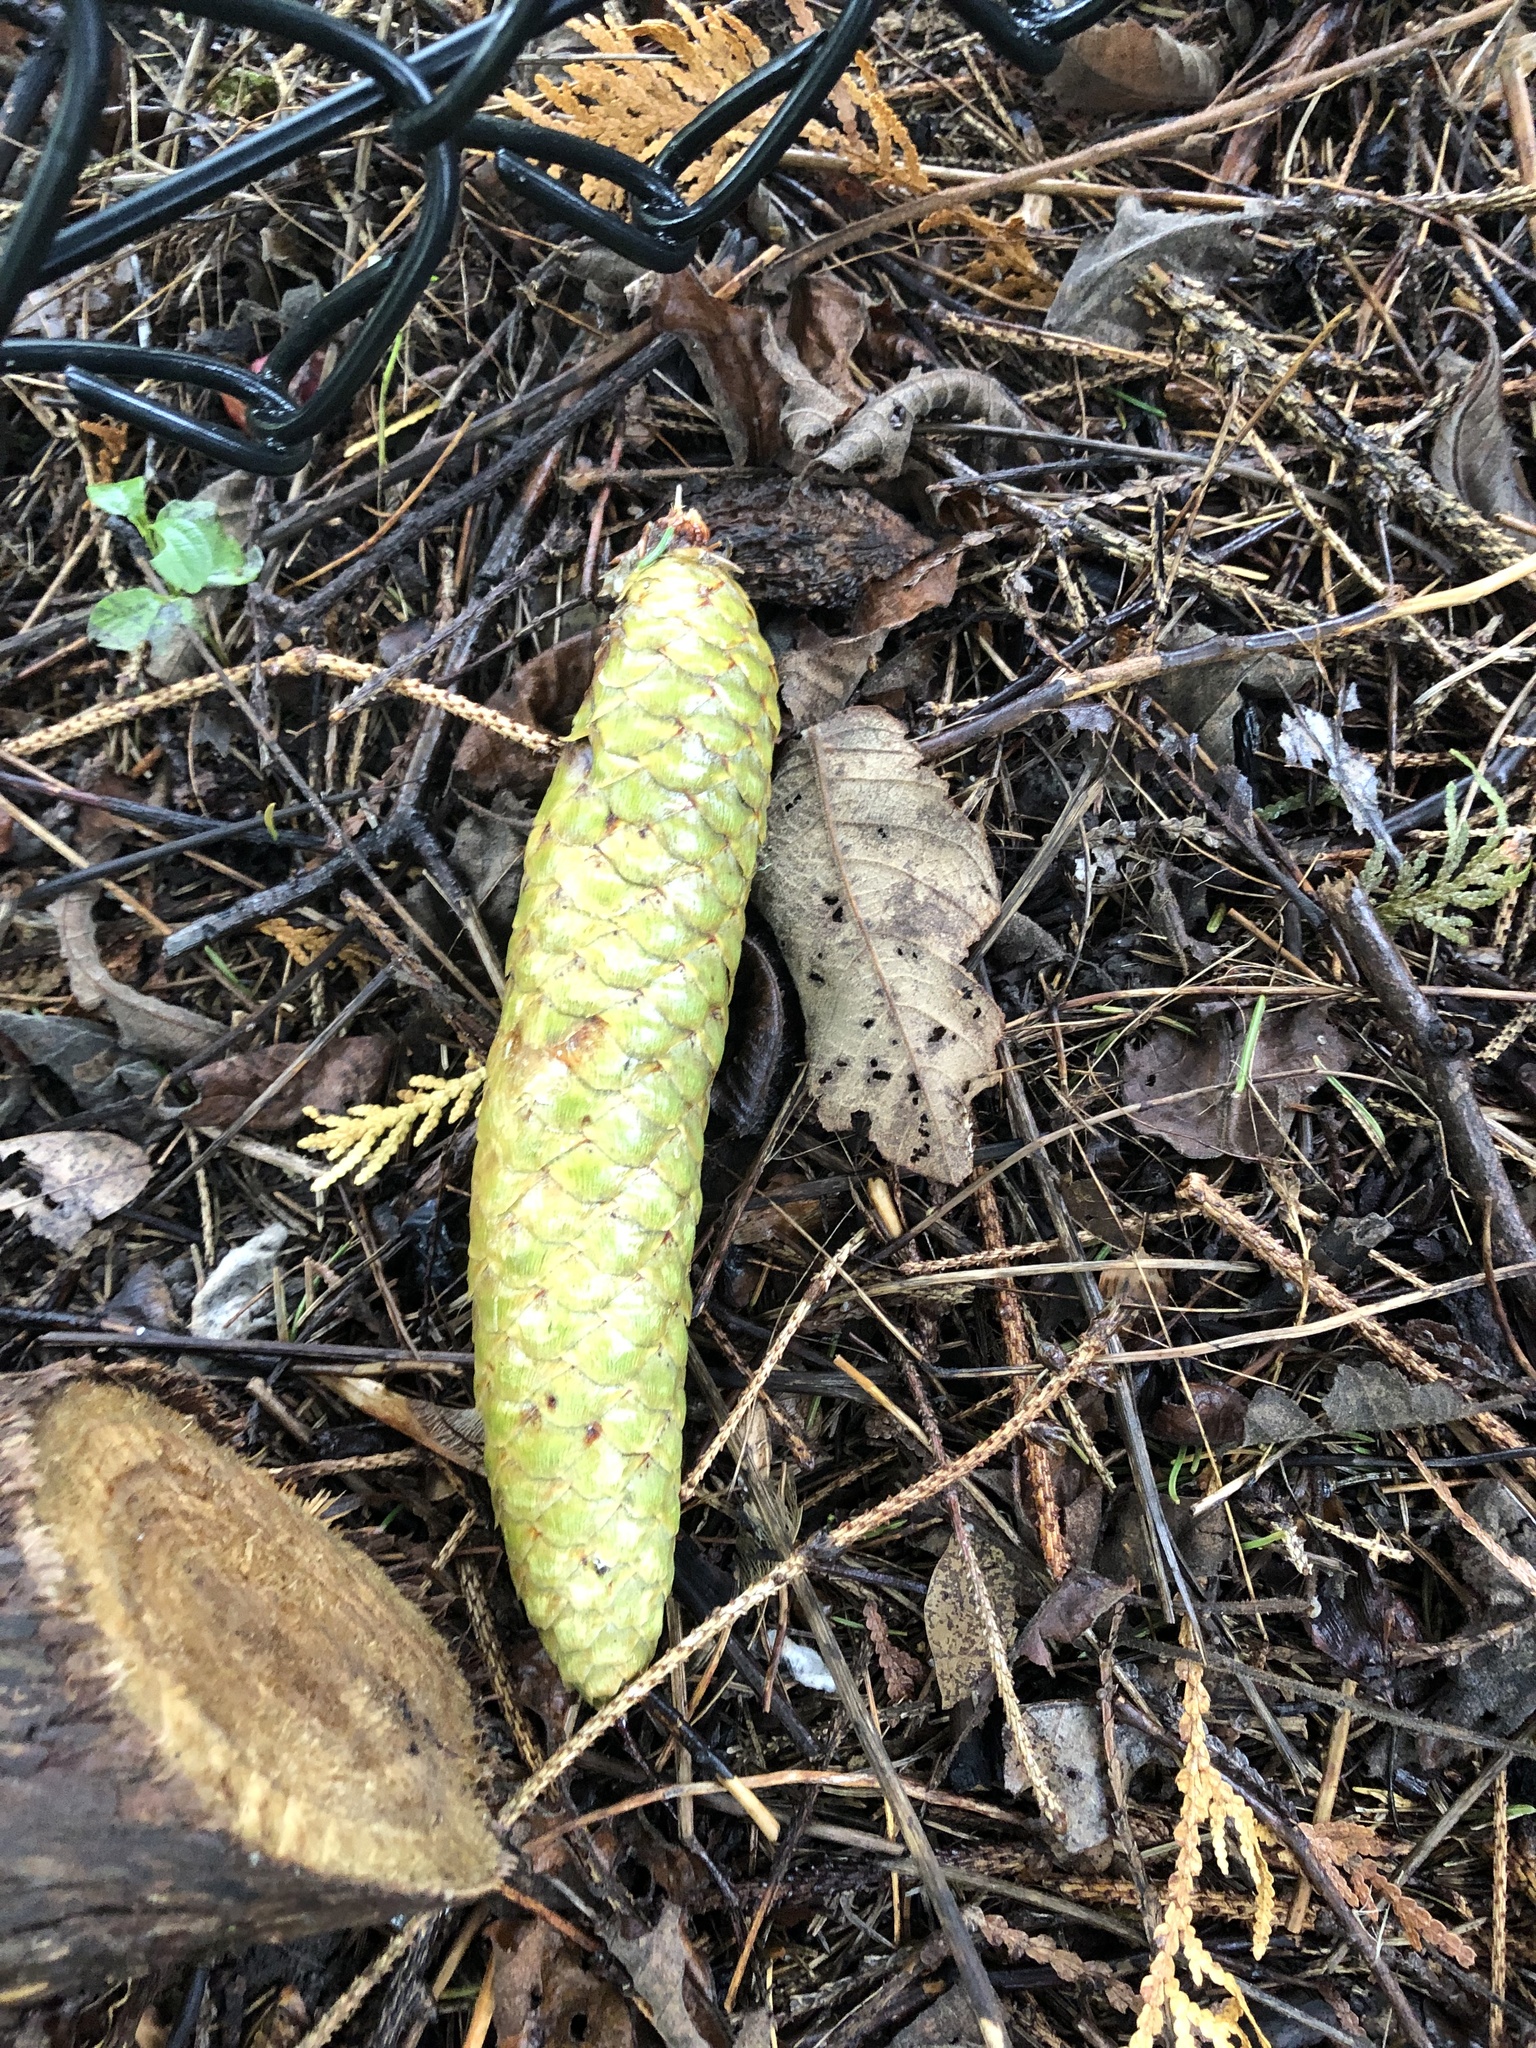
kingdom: Plantae
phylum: Tracheophyta
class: Pinopsida
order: Pinales
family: Pinaceae
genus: Picea
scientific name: Picea abies
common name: Norway spruce
